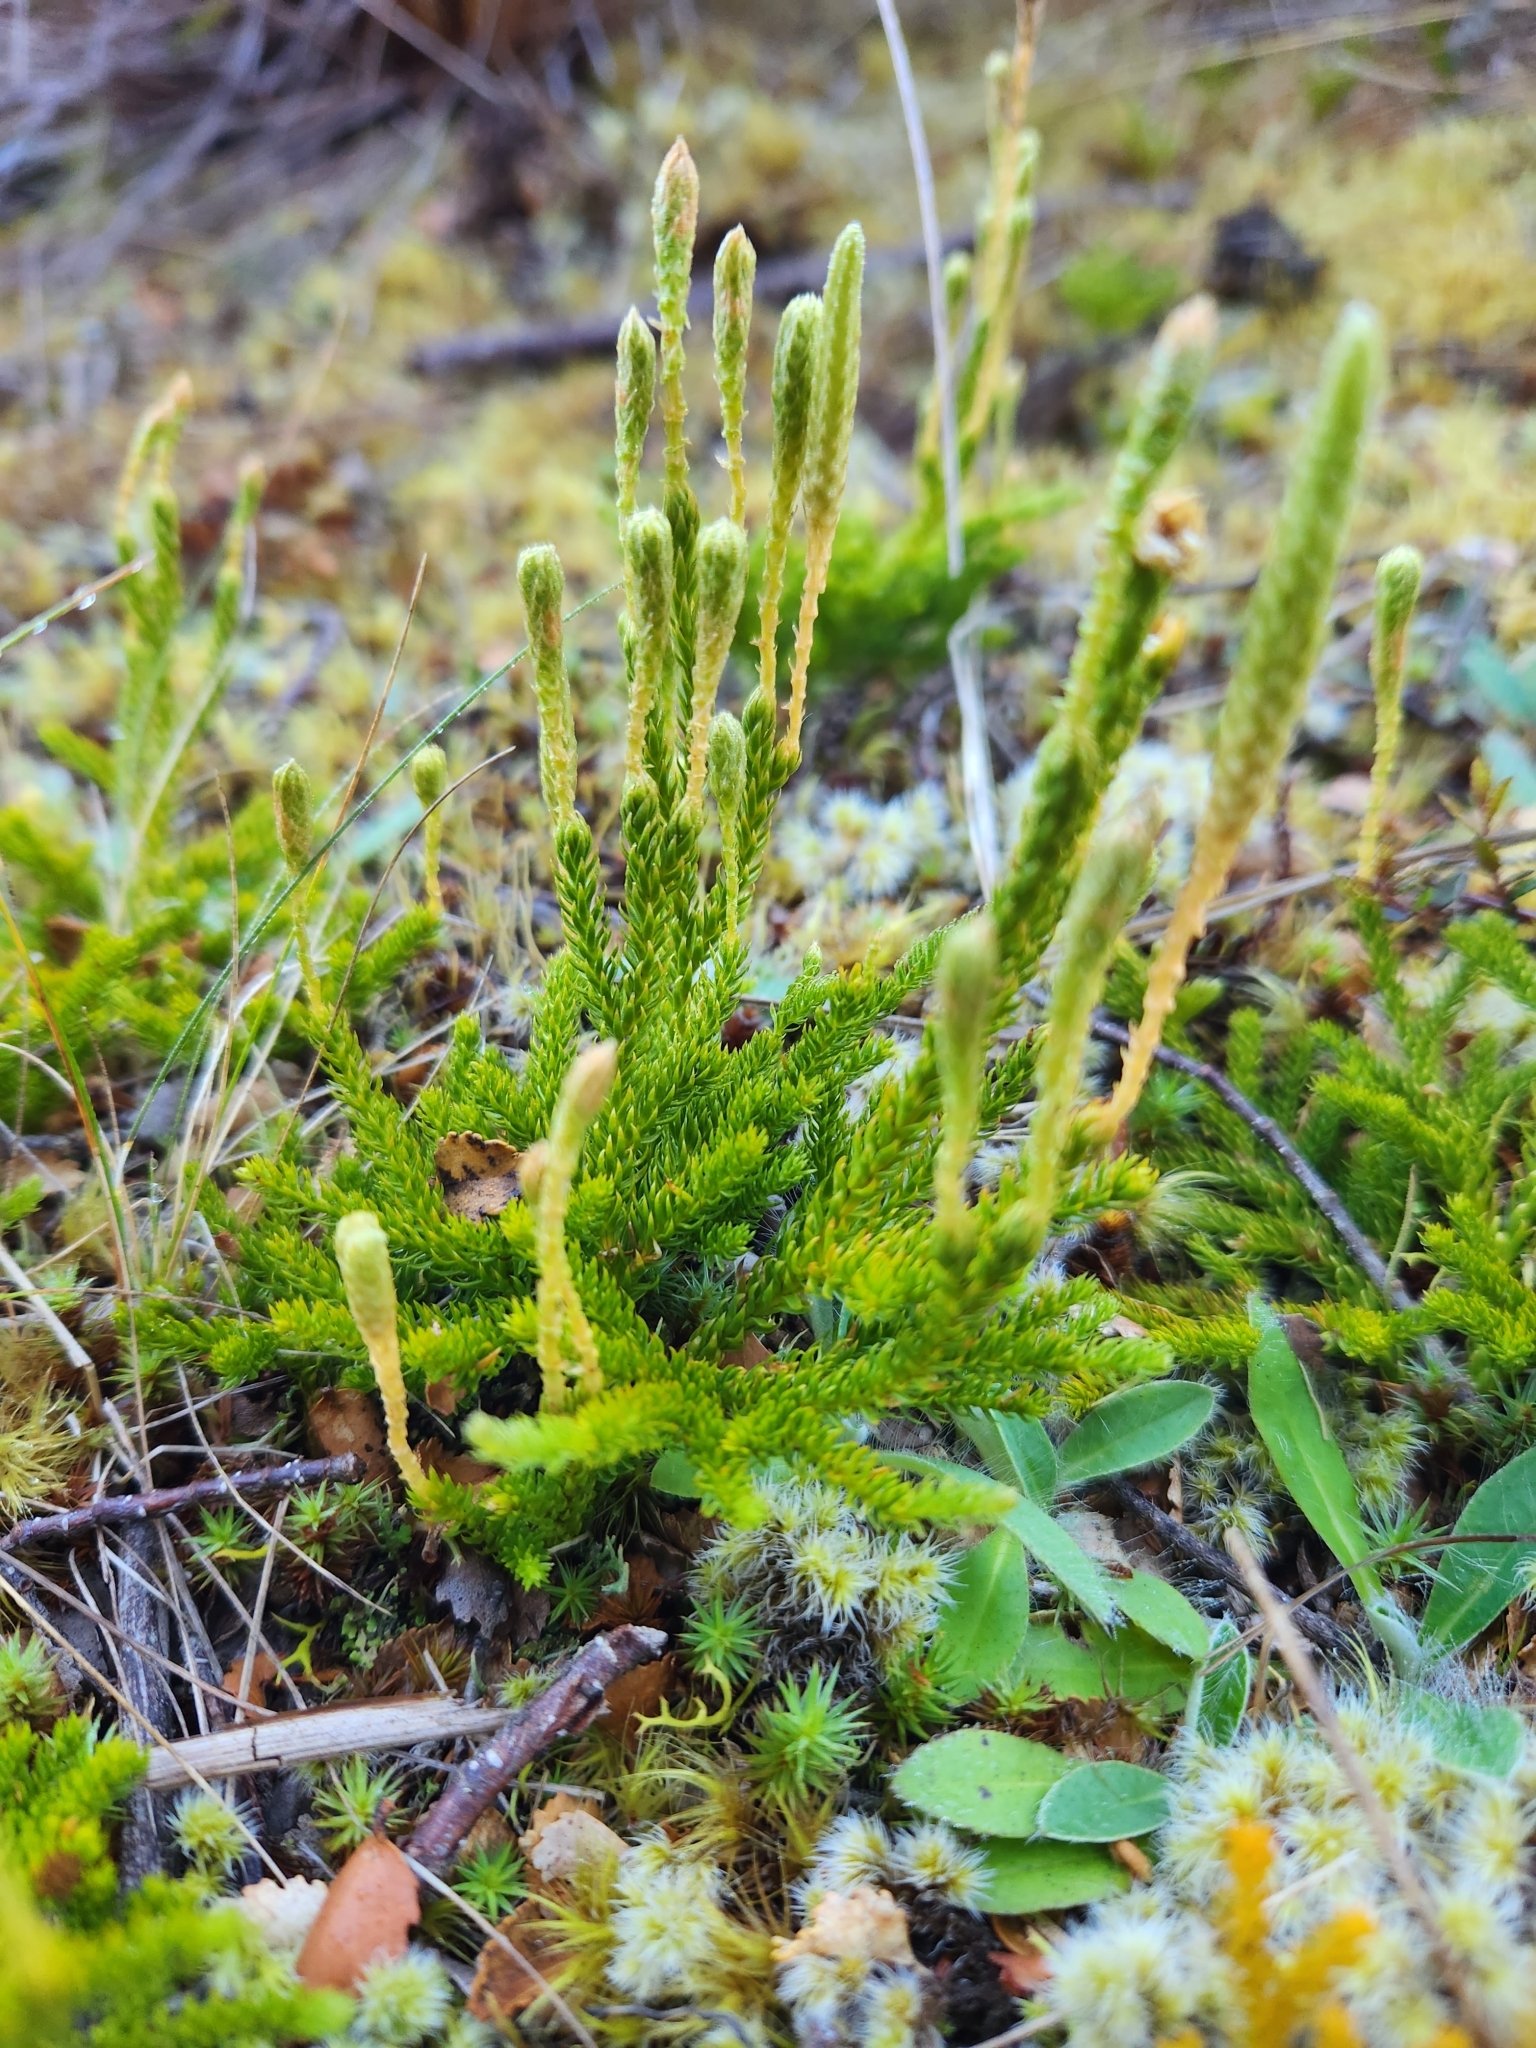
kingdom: Plantae
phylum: Tracheophyta
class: Lycopodiopsida
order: Lycopodiales
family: Lycopodiaceae
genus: Austrolycopodium
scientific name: Austrolycopodium fastigiatum
